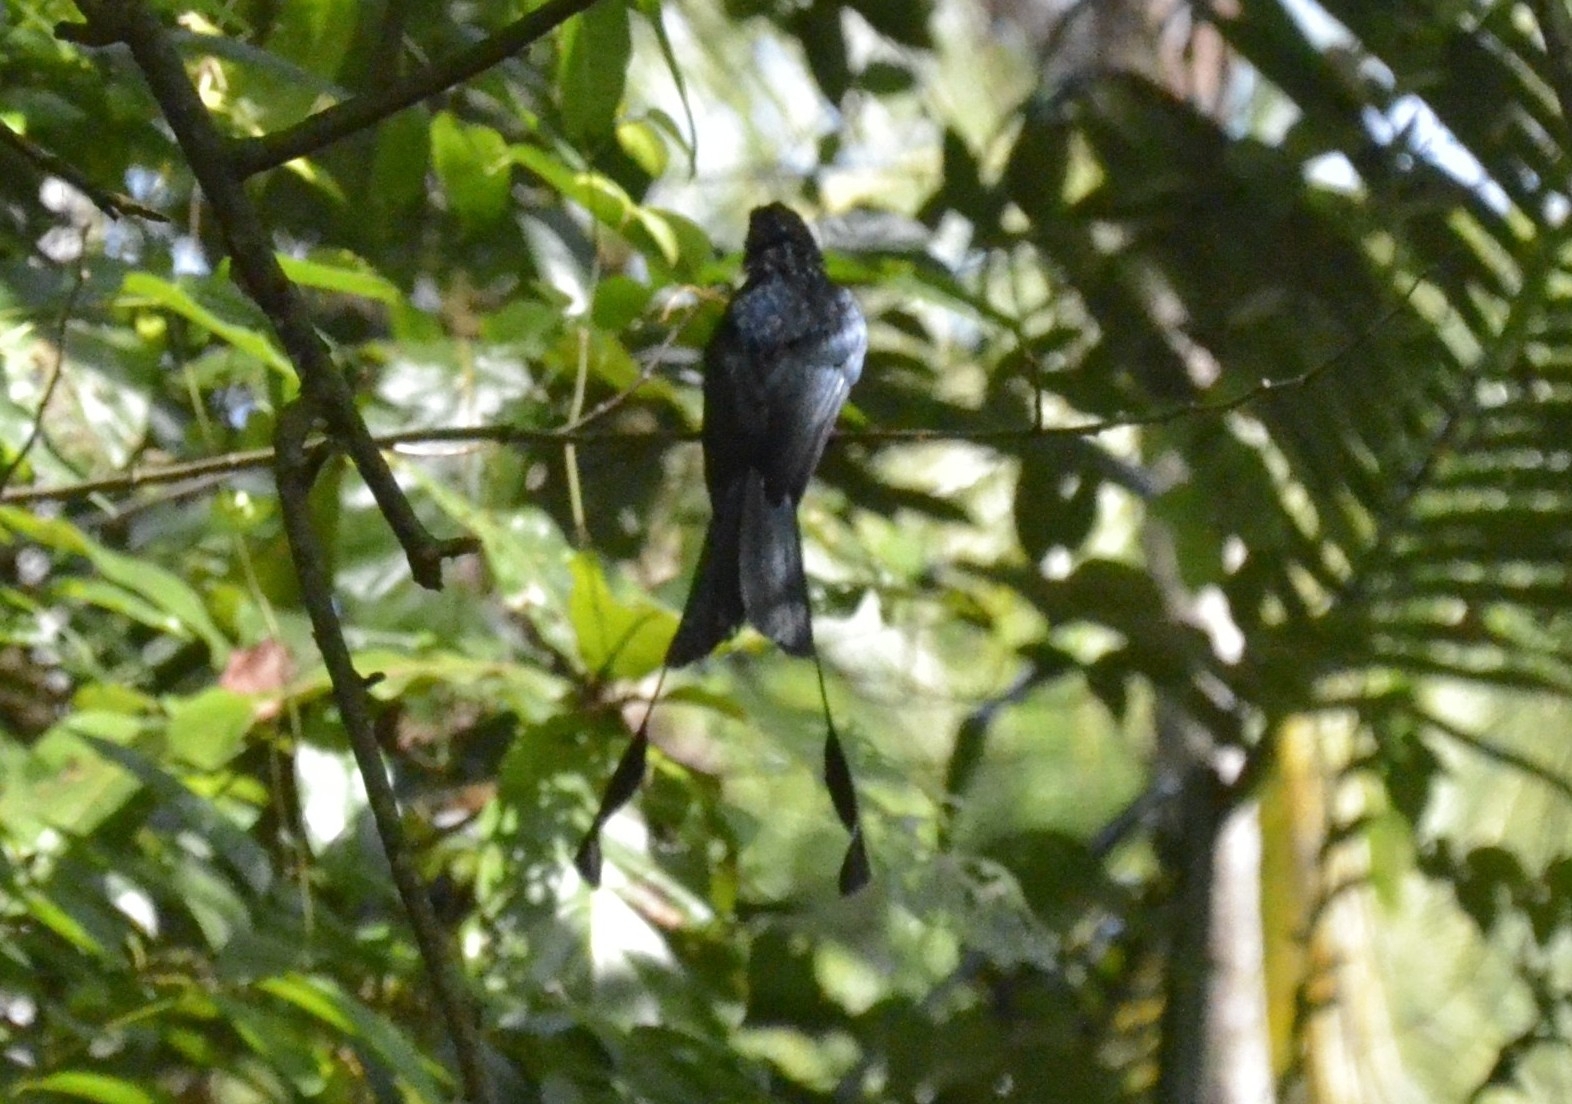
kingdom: Animalia
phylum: Chordata
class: Aves
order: Passeriformes
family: Dicruridae
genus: Dicrurus
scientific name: Dicrurus paradiseus
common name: Greater racket-tailed drongo
